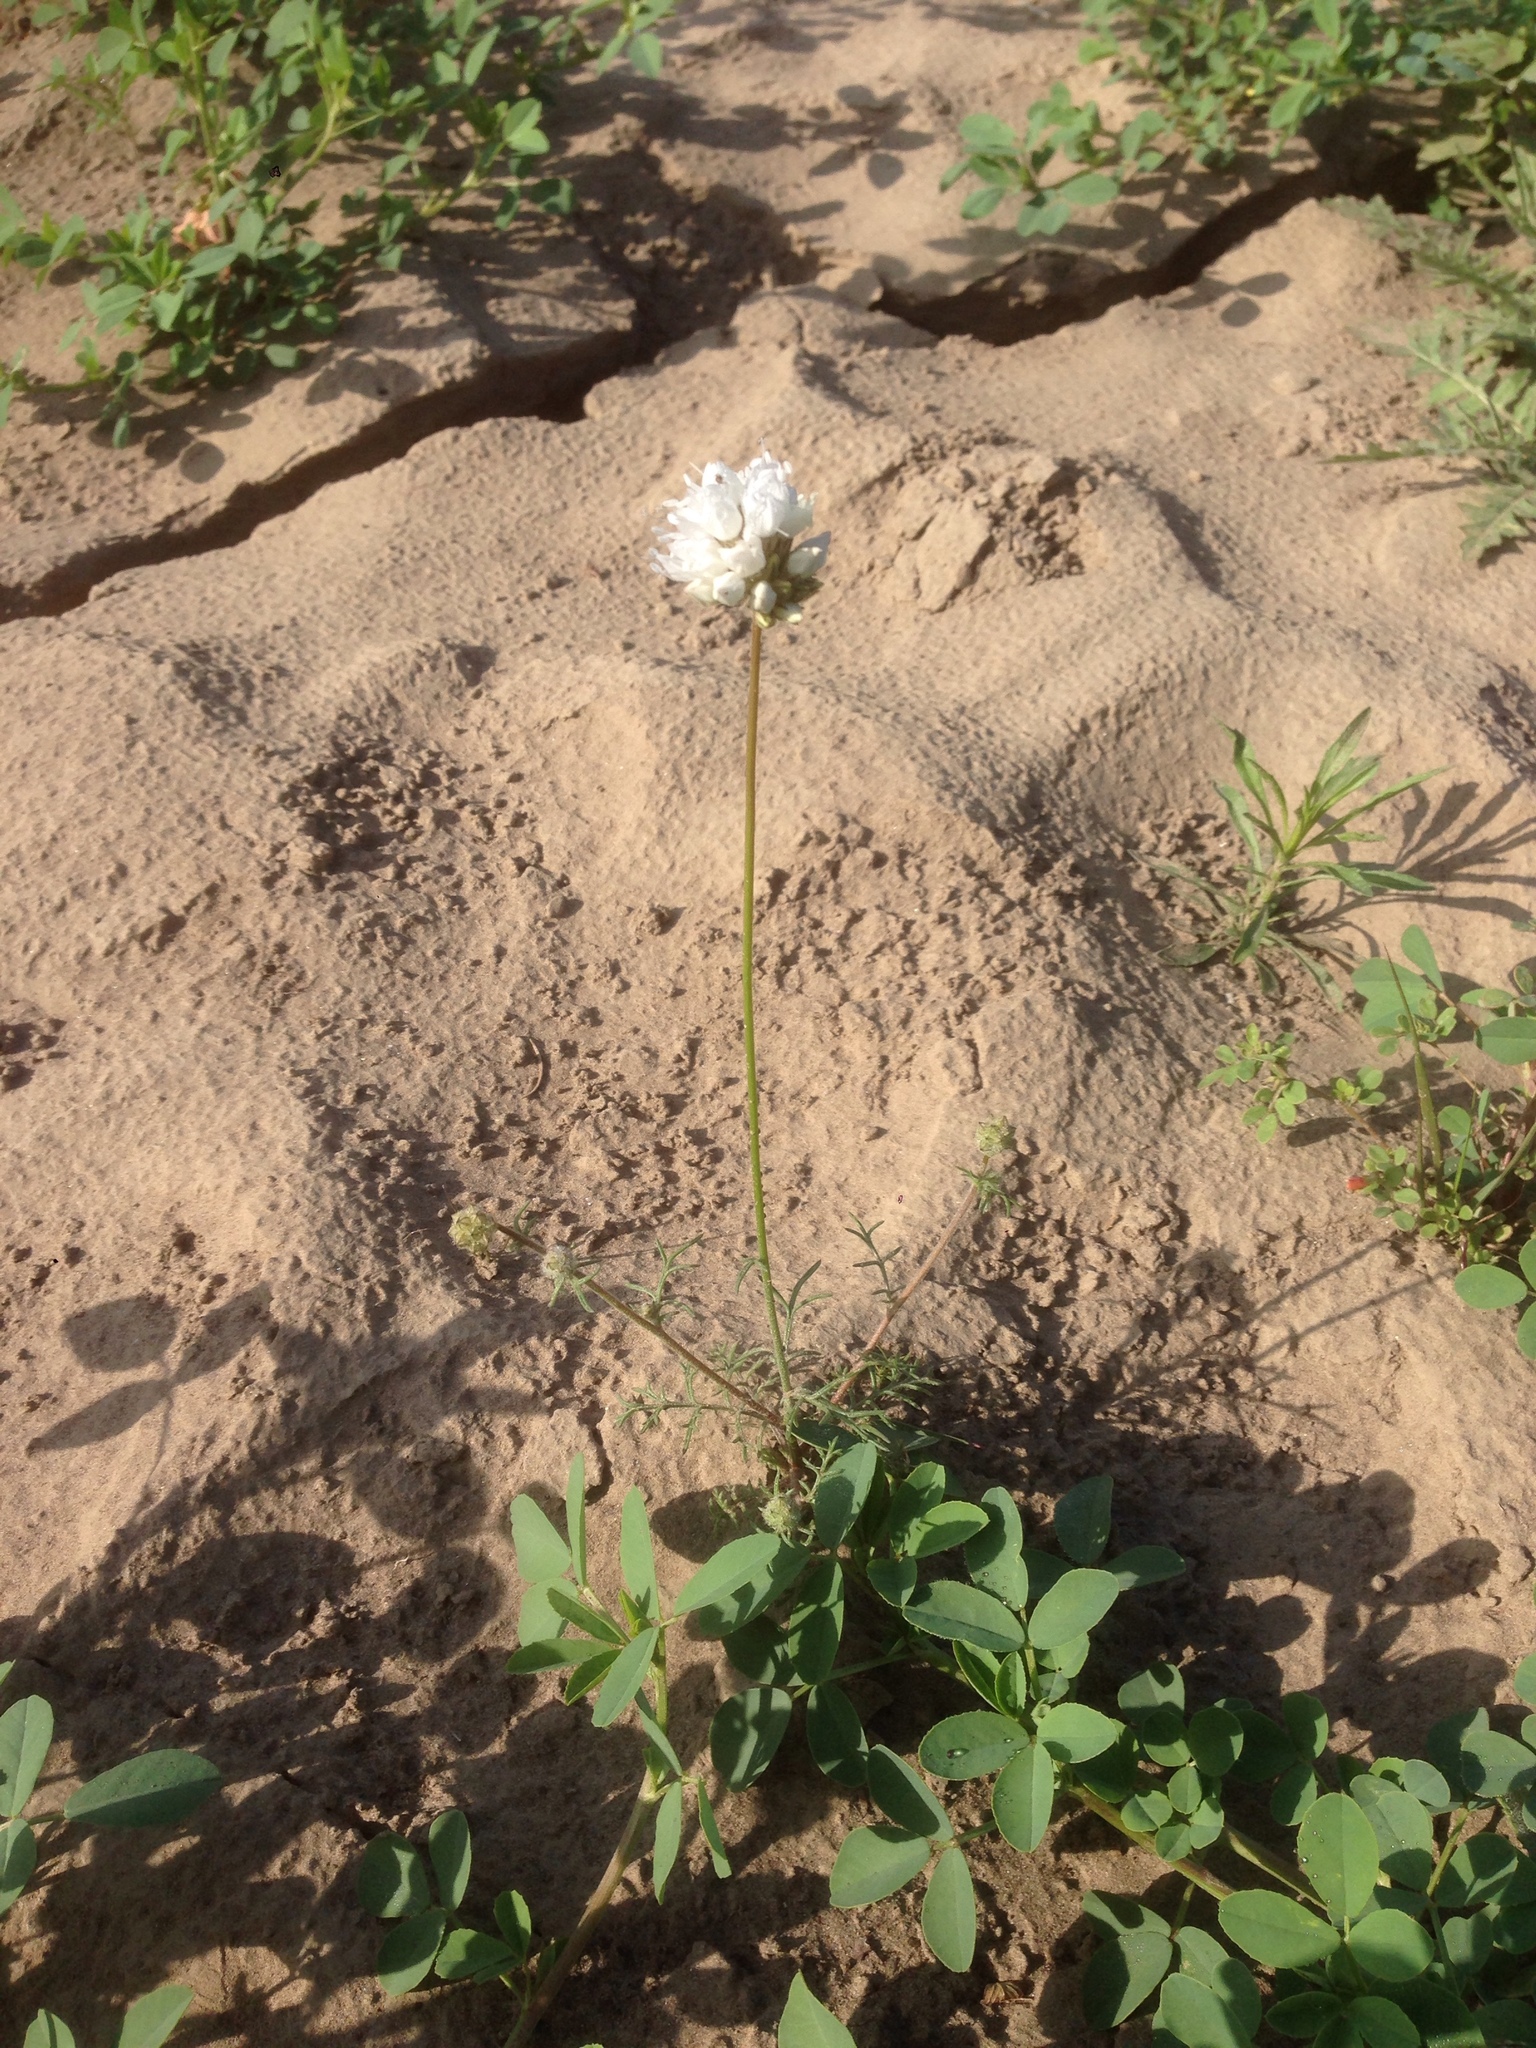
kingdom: Plantae
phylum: Tracheophyta
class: Magnoliopsida
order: Ericales
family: Polemoniaceae
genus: Gilia
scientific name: Gilia capitata
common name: Bluehead gilia
